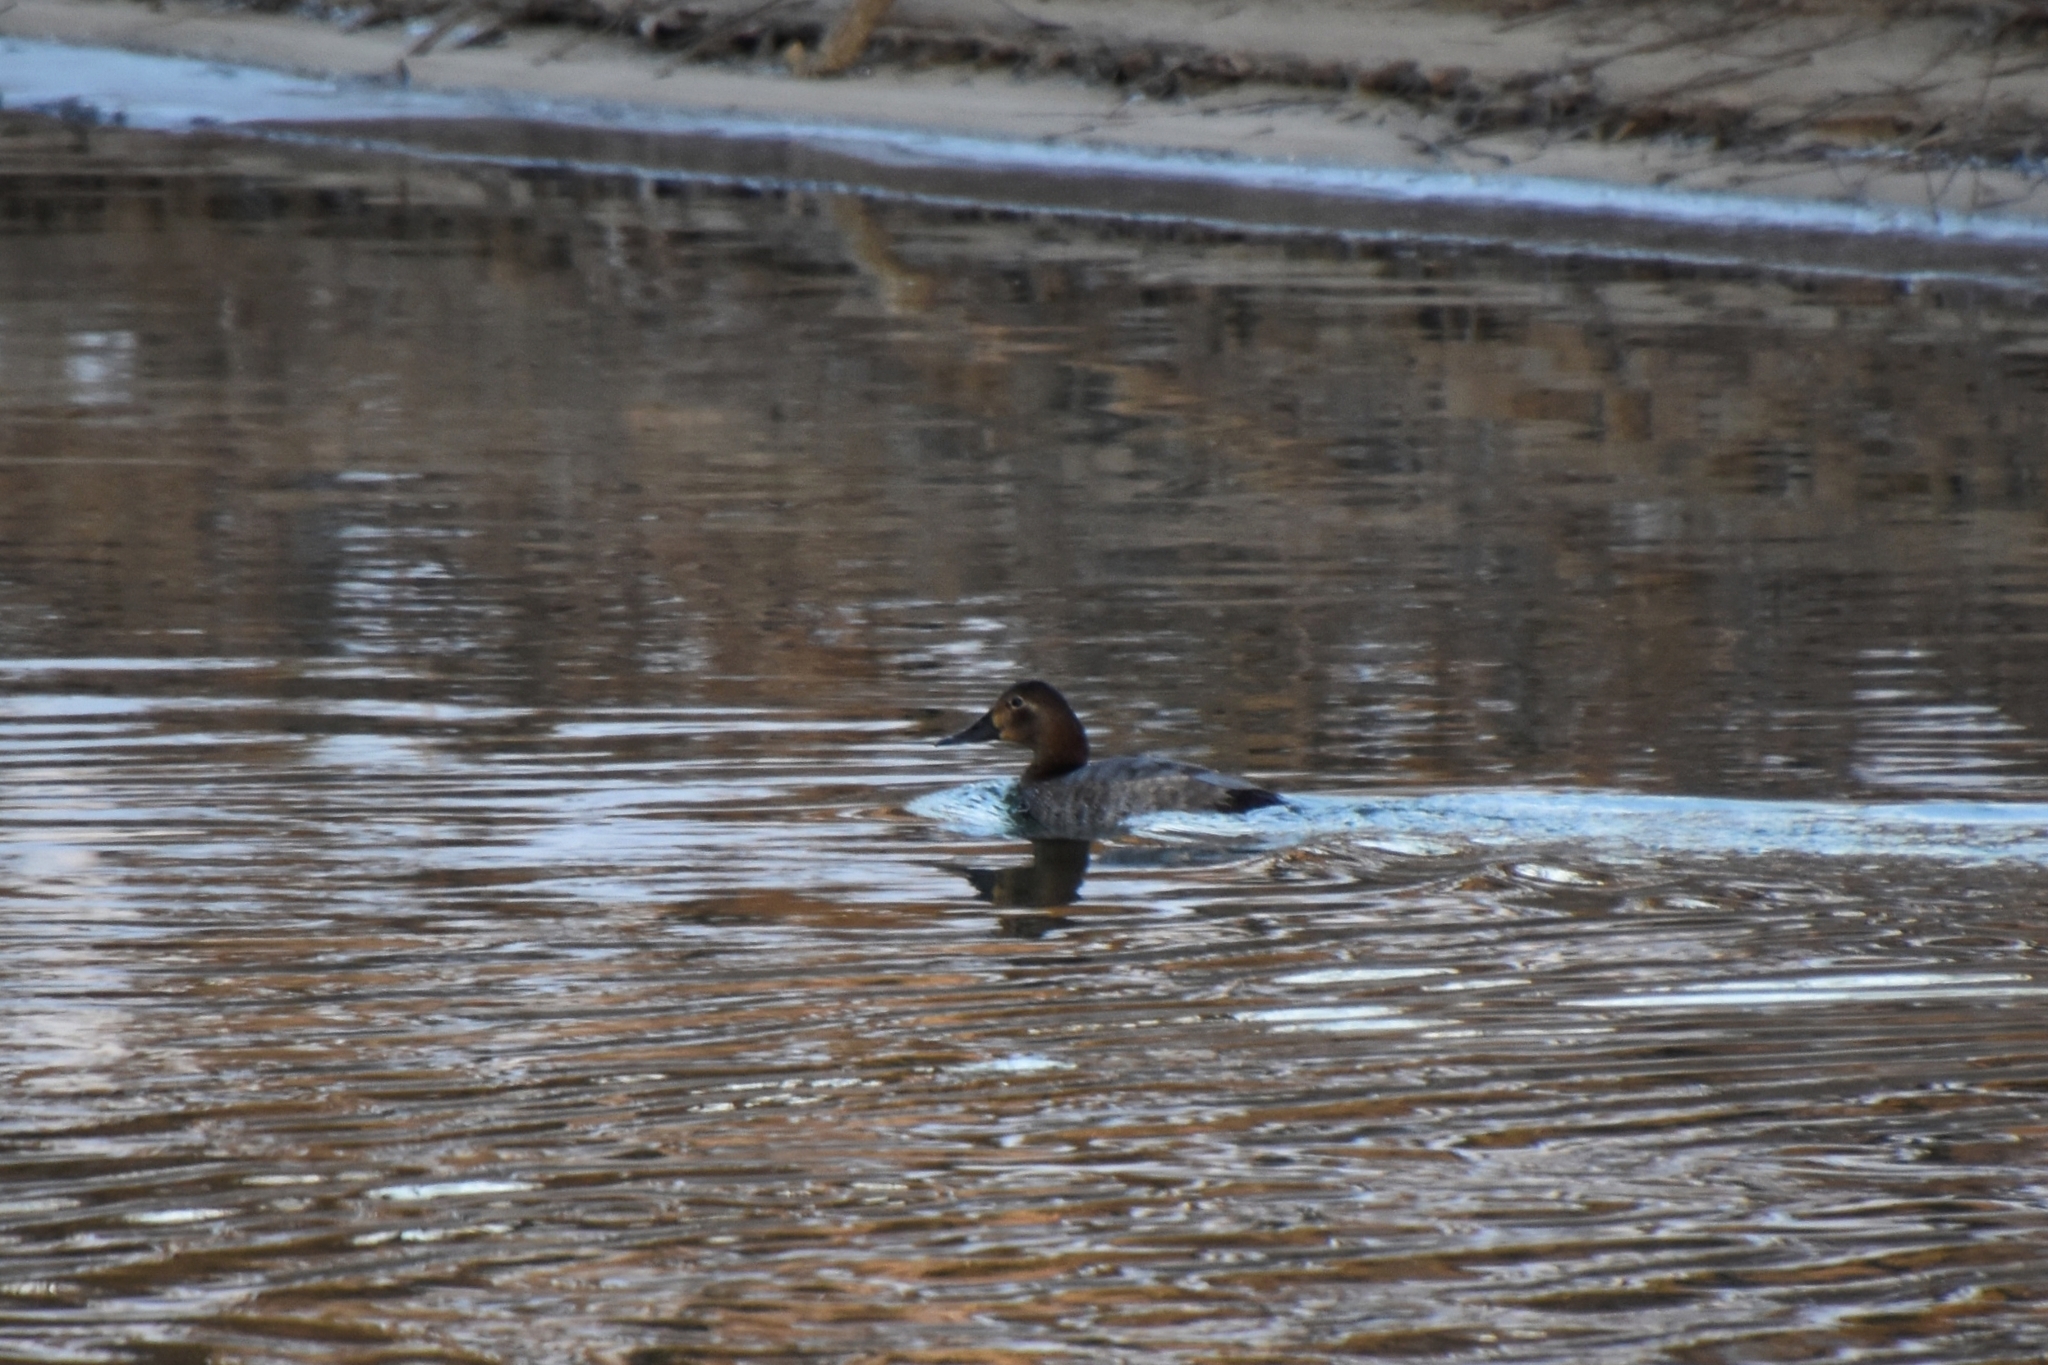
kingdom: Animalia
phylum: Chordata
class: Aves
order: Anseriformes
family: Anatidae
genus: Aythya
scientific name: Aythya ferina
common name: Common pochard
